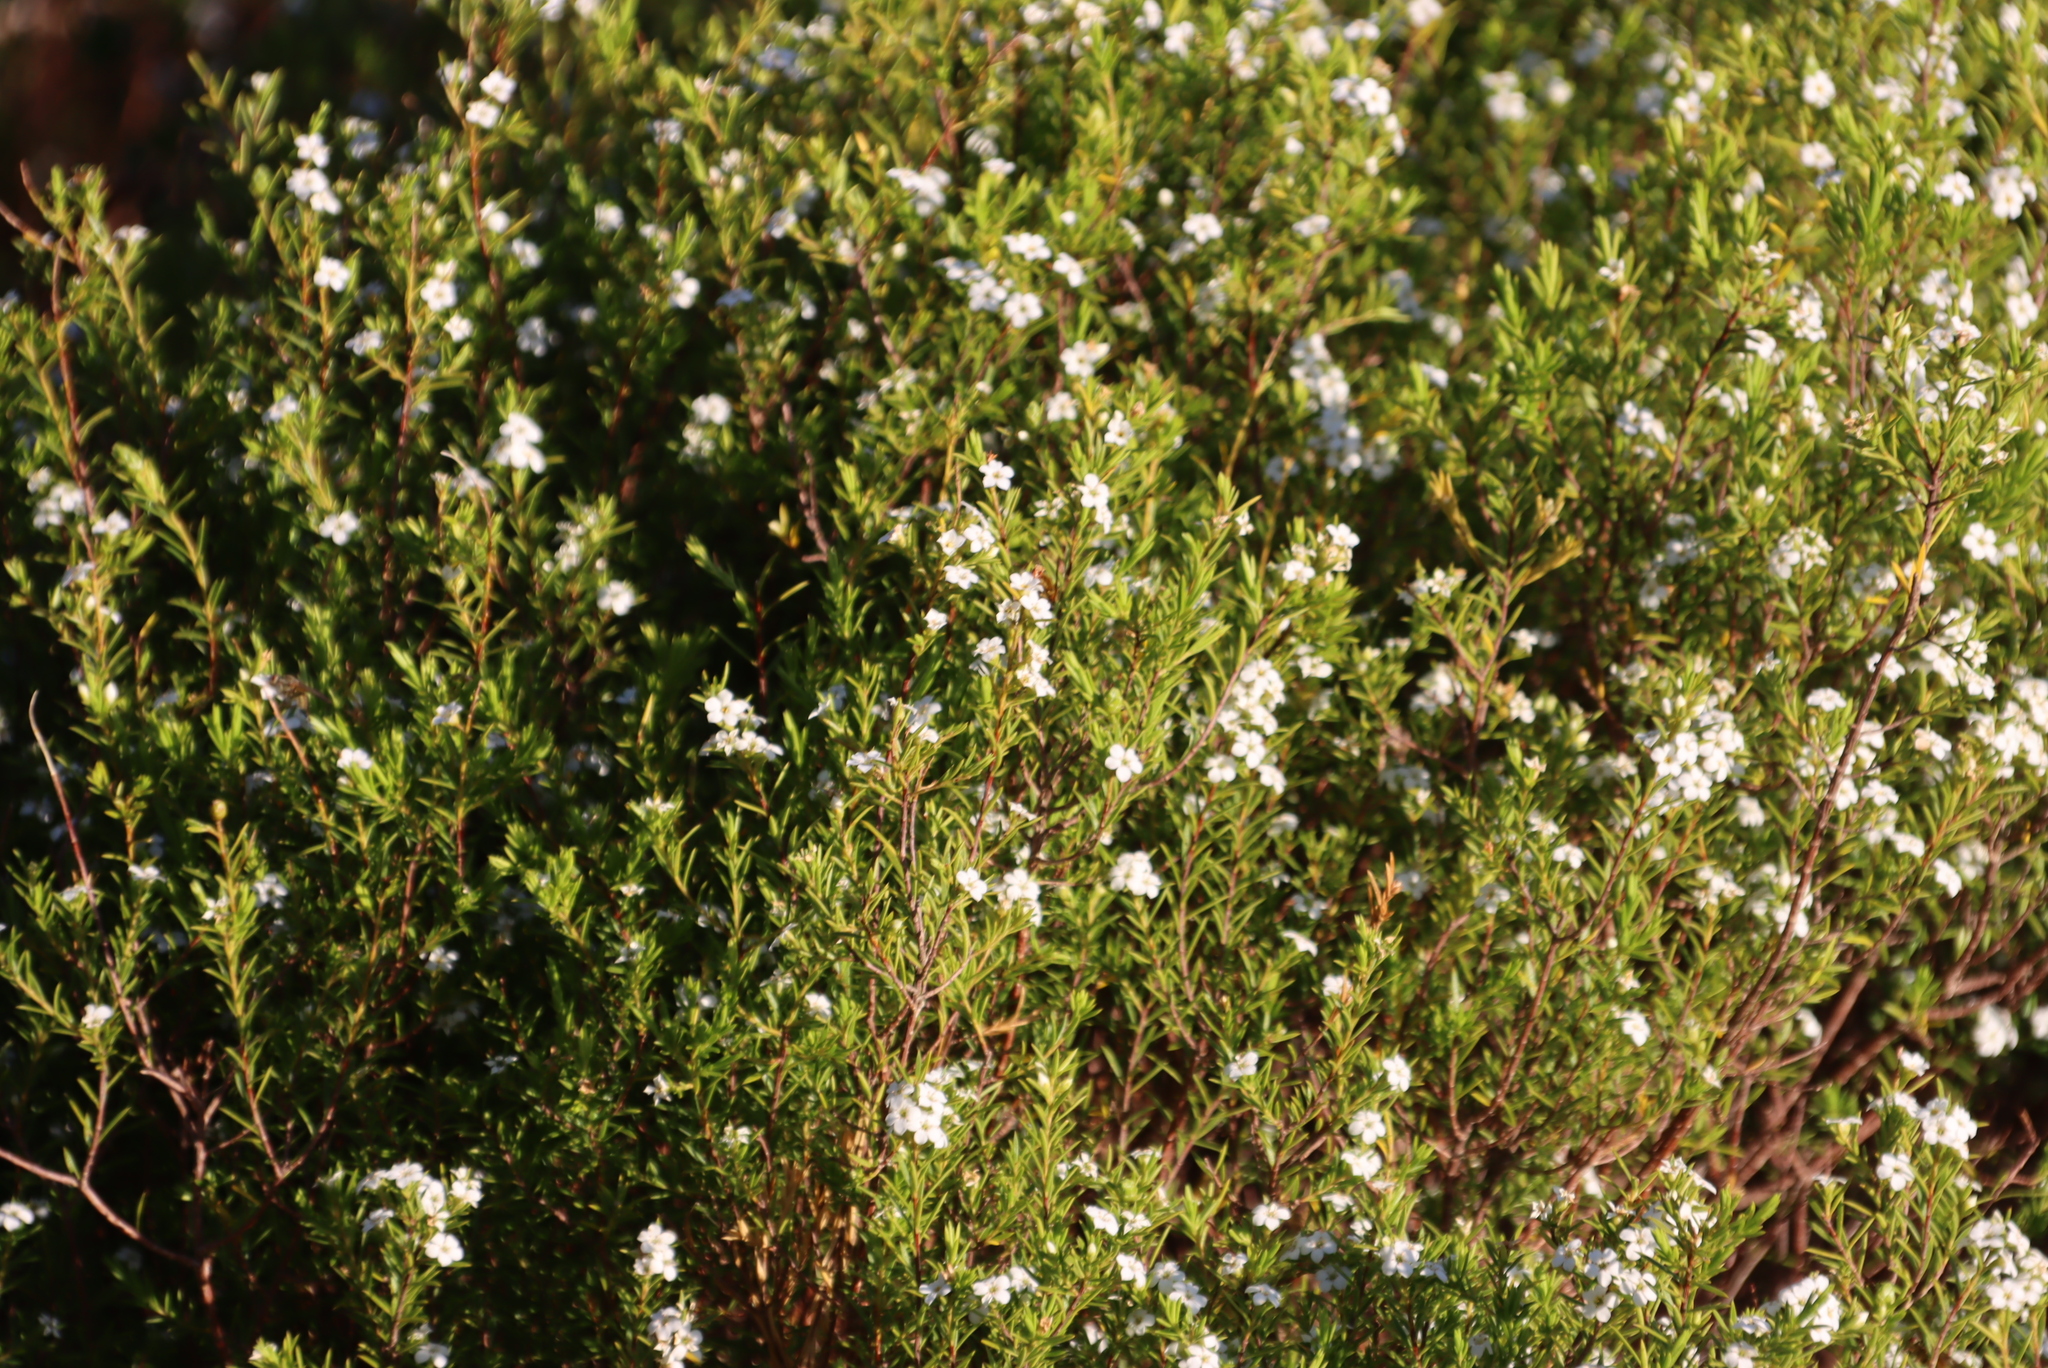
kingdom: Plantae
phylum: Tracheophyta
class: Magnoliopsida
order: Sapindales
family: Rutaceae
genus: Coleonema
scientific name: Coleonema album
